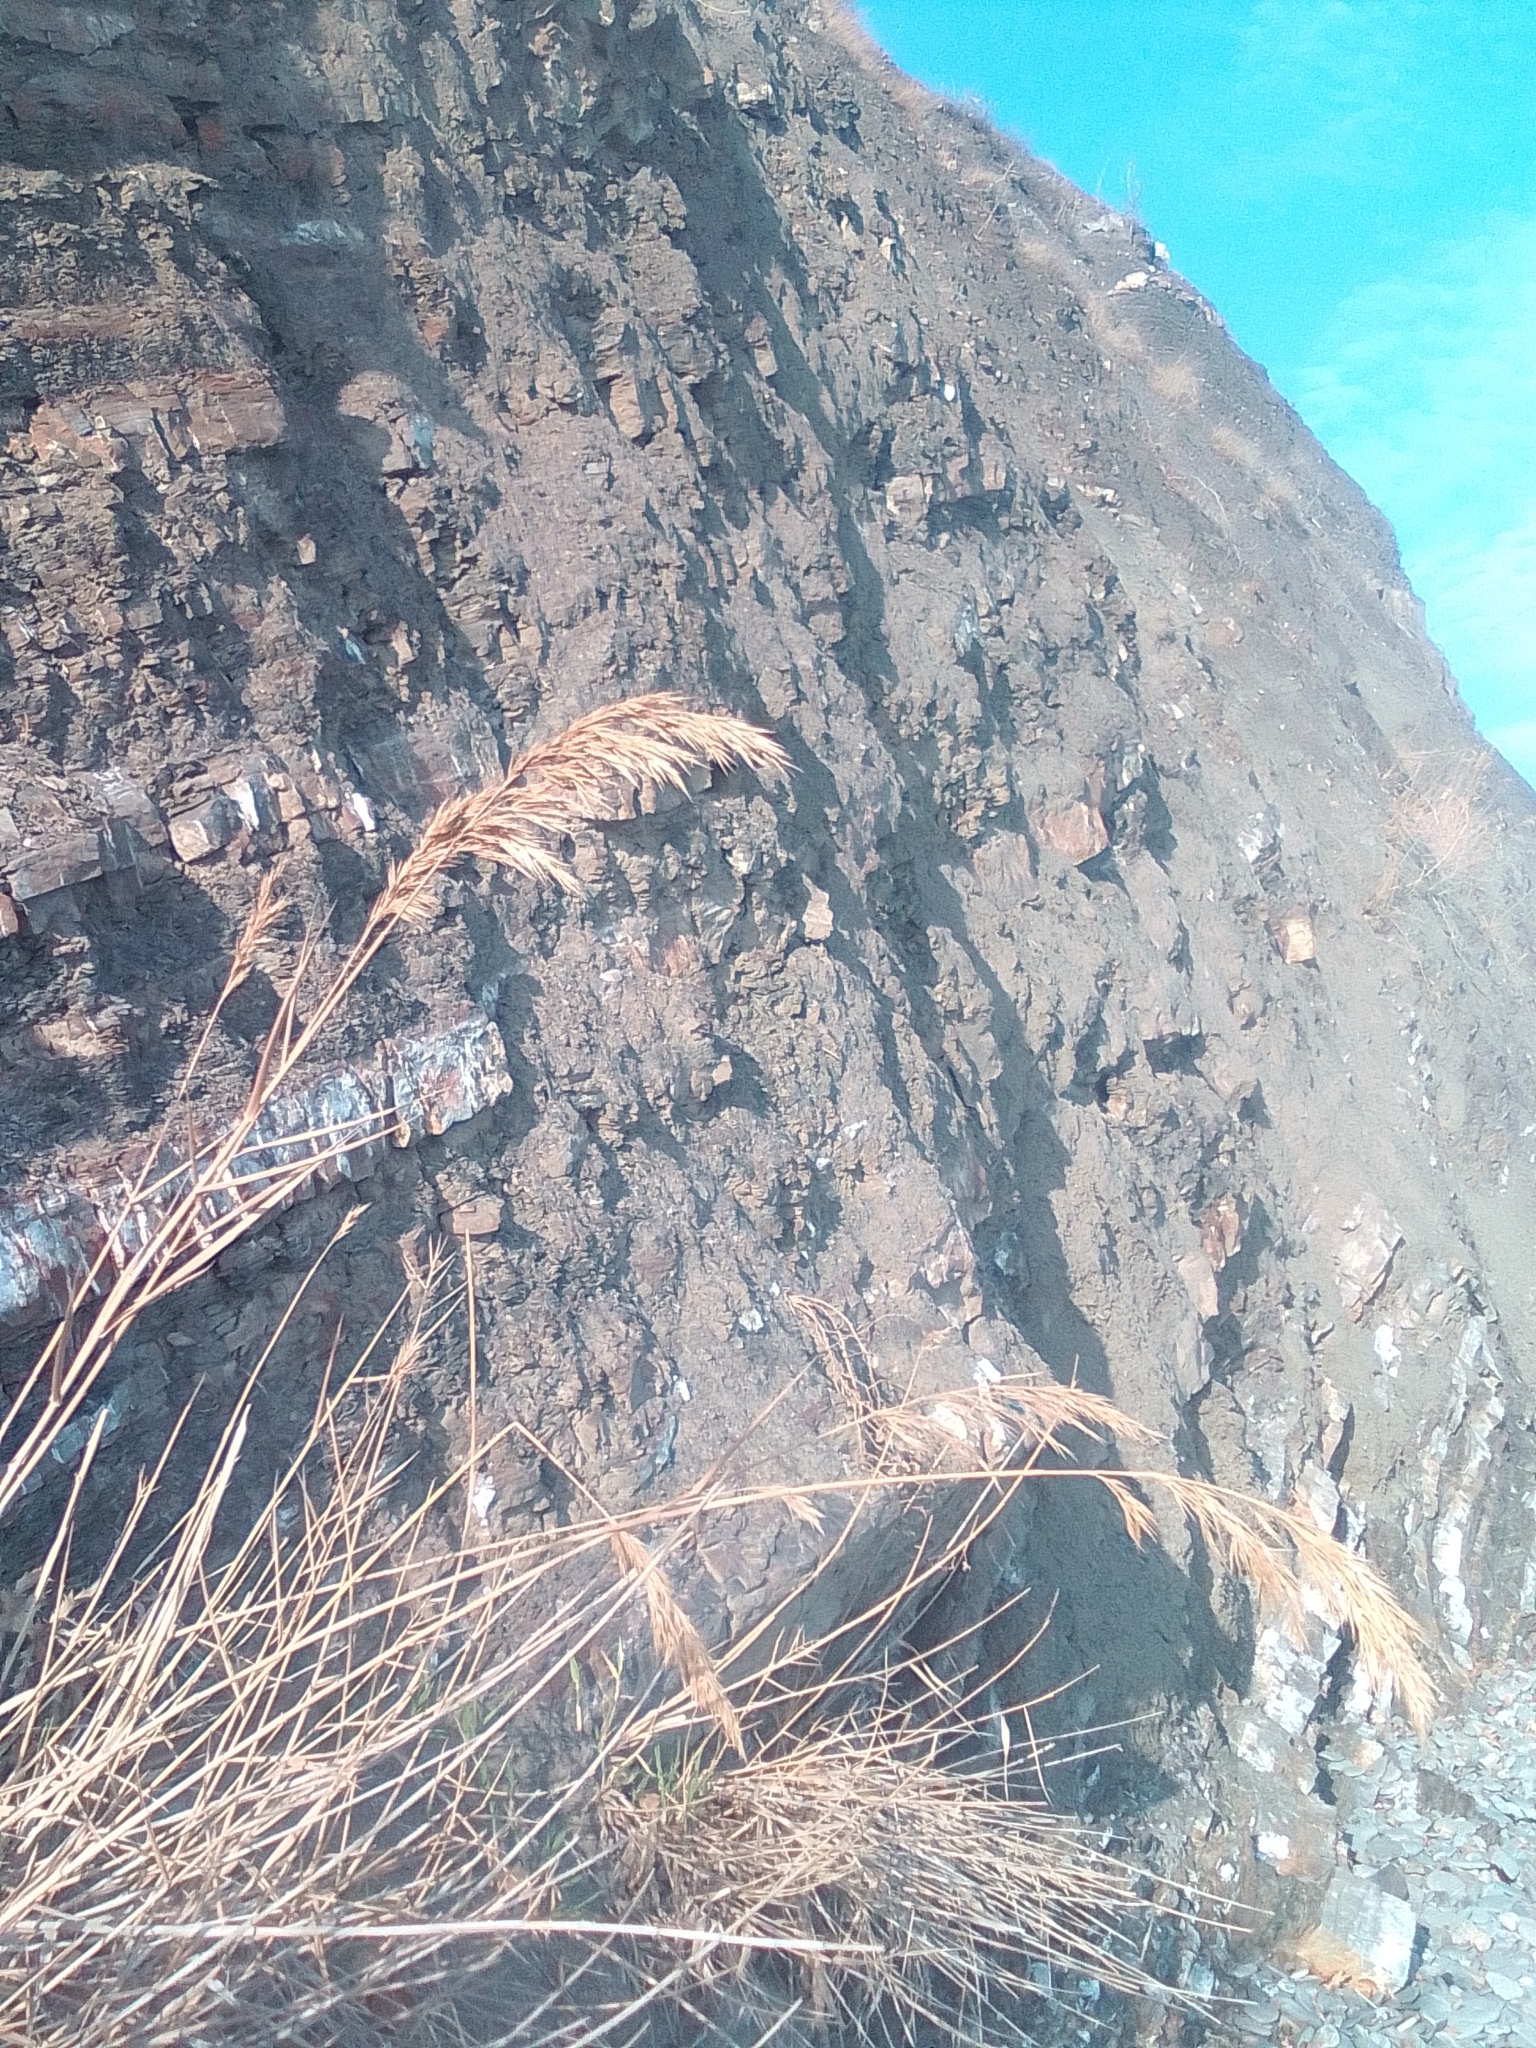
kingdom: Plantae
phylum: Tracheophyta
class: Liliopsida
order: Poales
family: Poaceae
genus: Phragmites
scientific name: Phragmites australis
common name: Common reed
